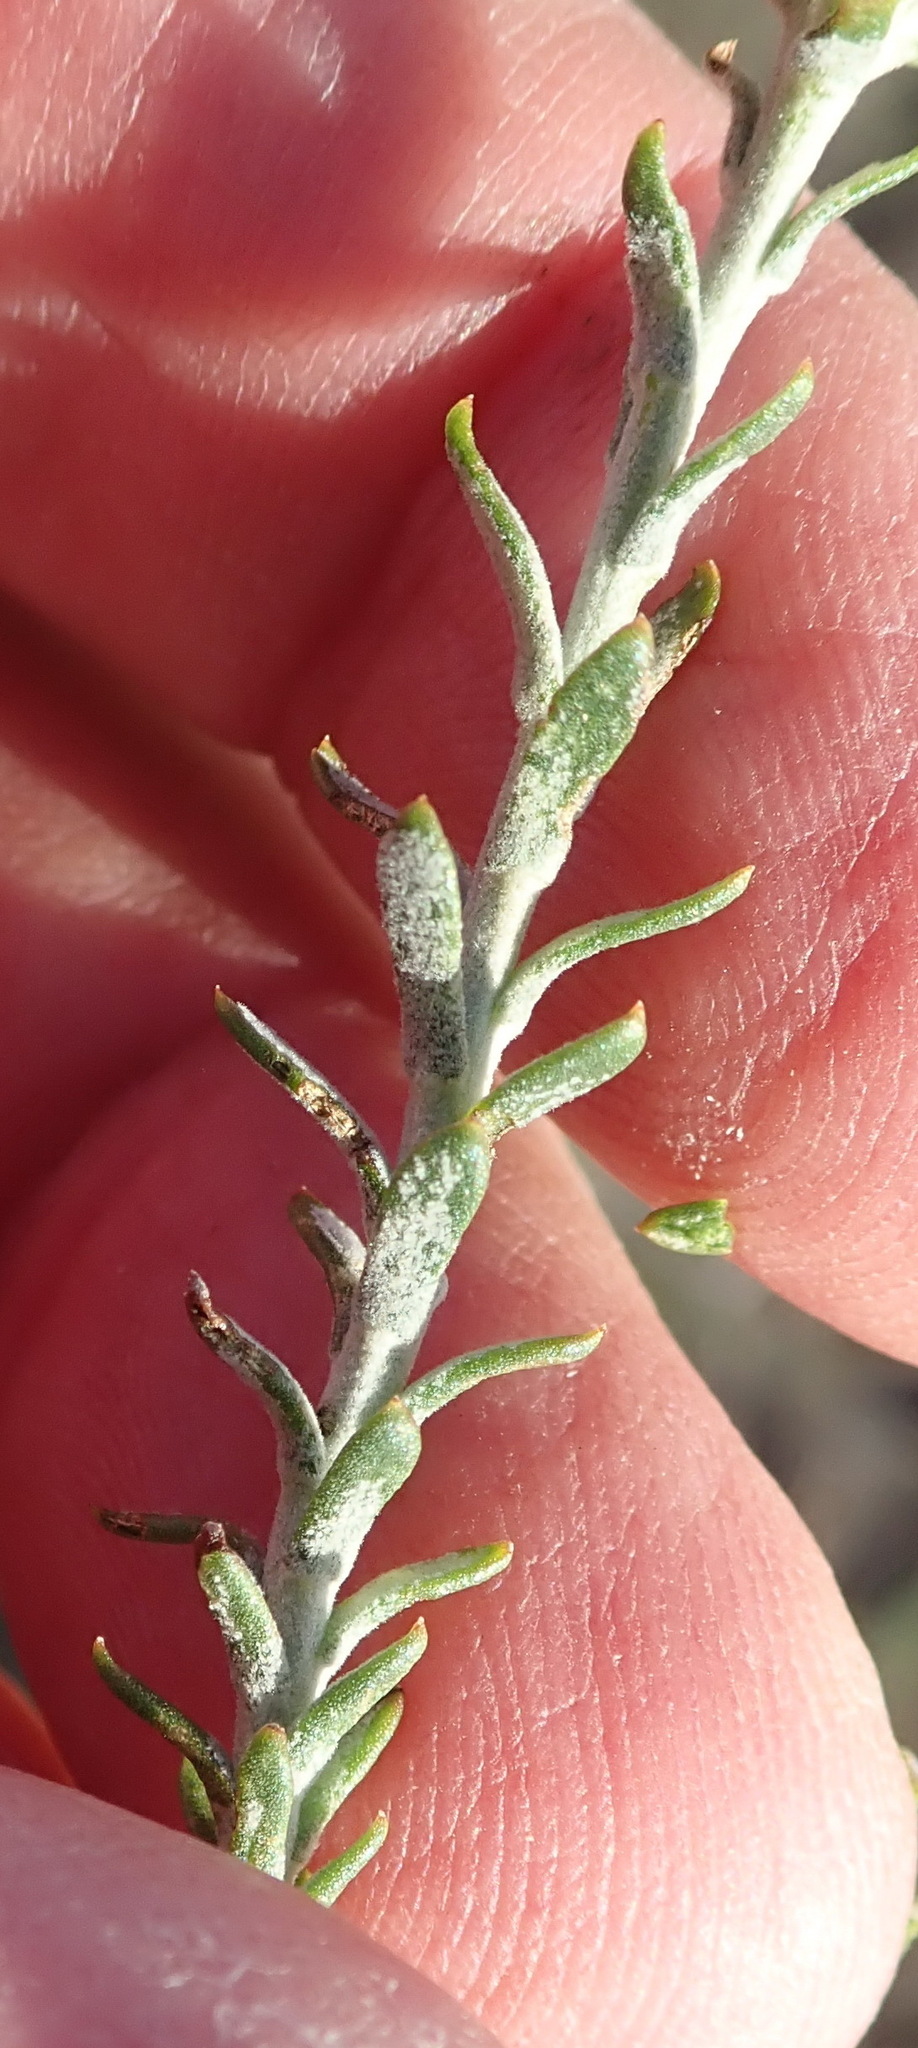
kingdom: Plantae
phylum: Tracheophyta
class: Magnoliopsida
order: Asterales
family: Asteraceae
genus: Athanasia
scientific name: Athanasia trifurcata
